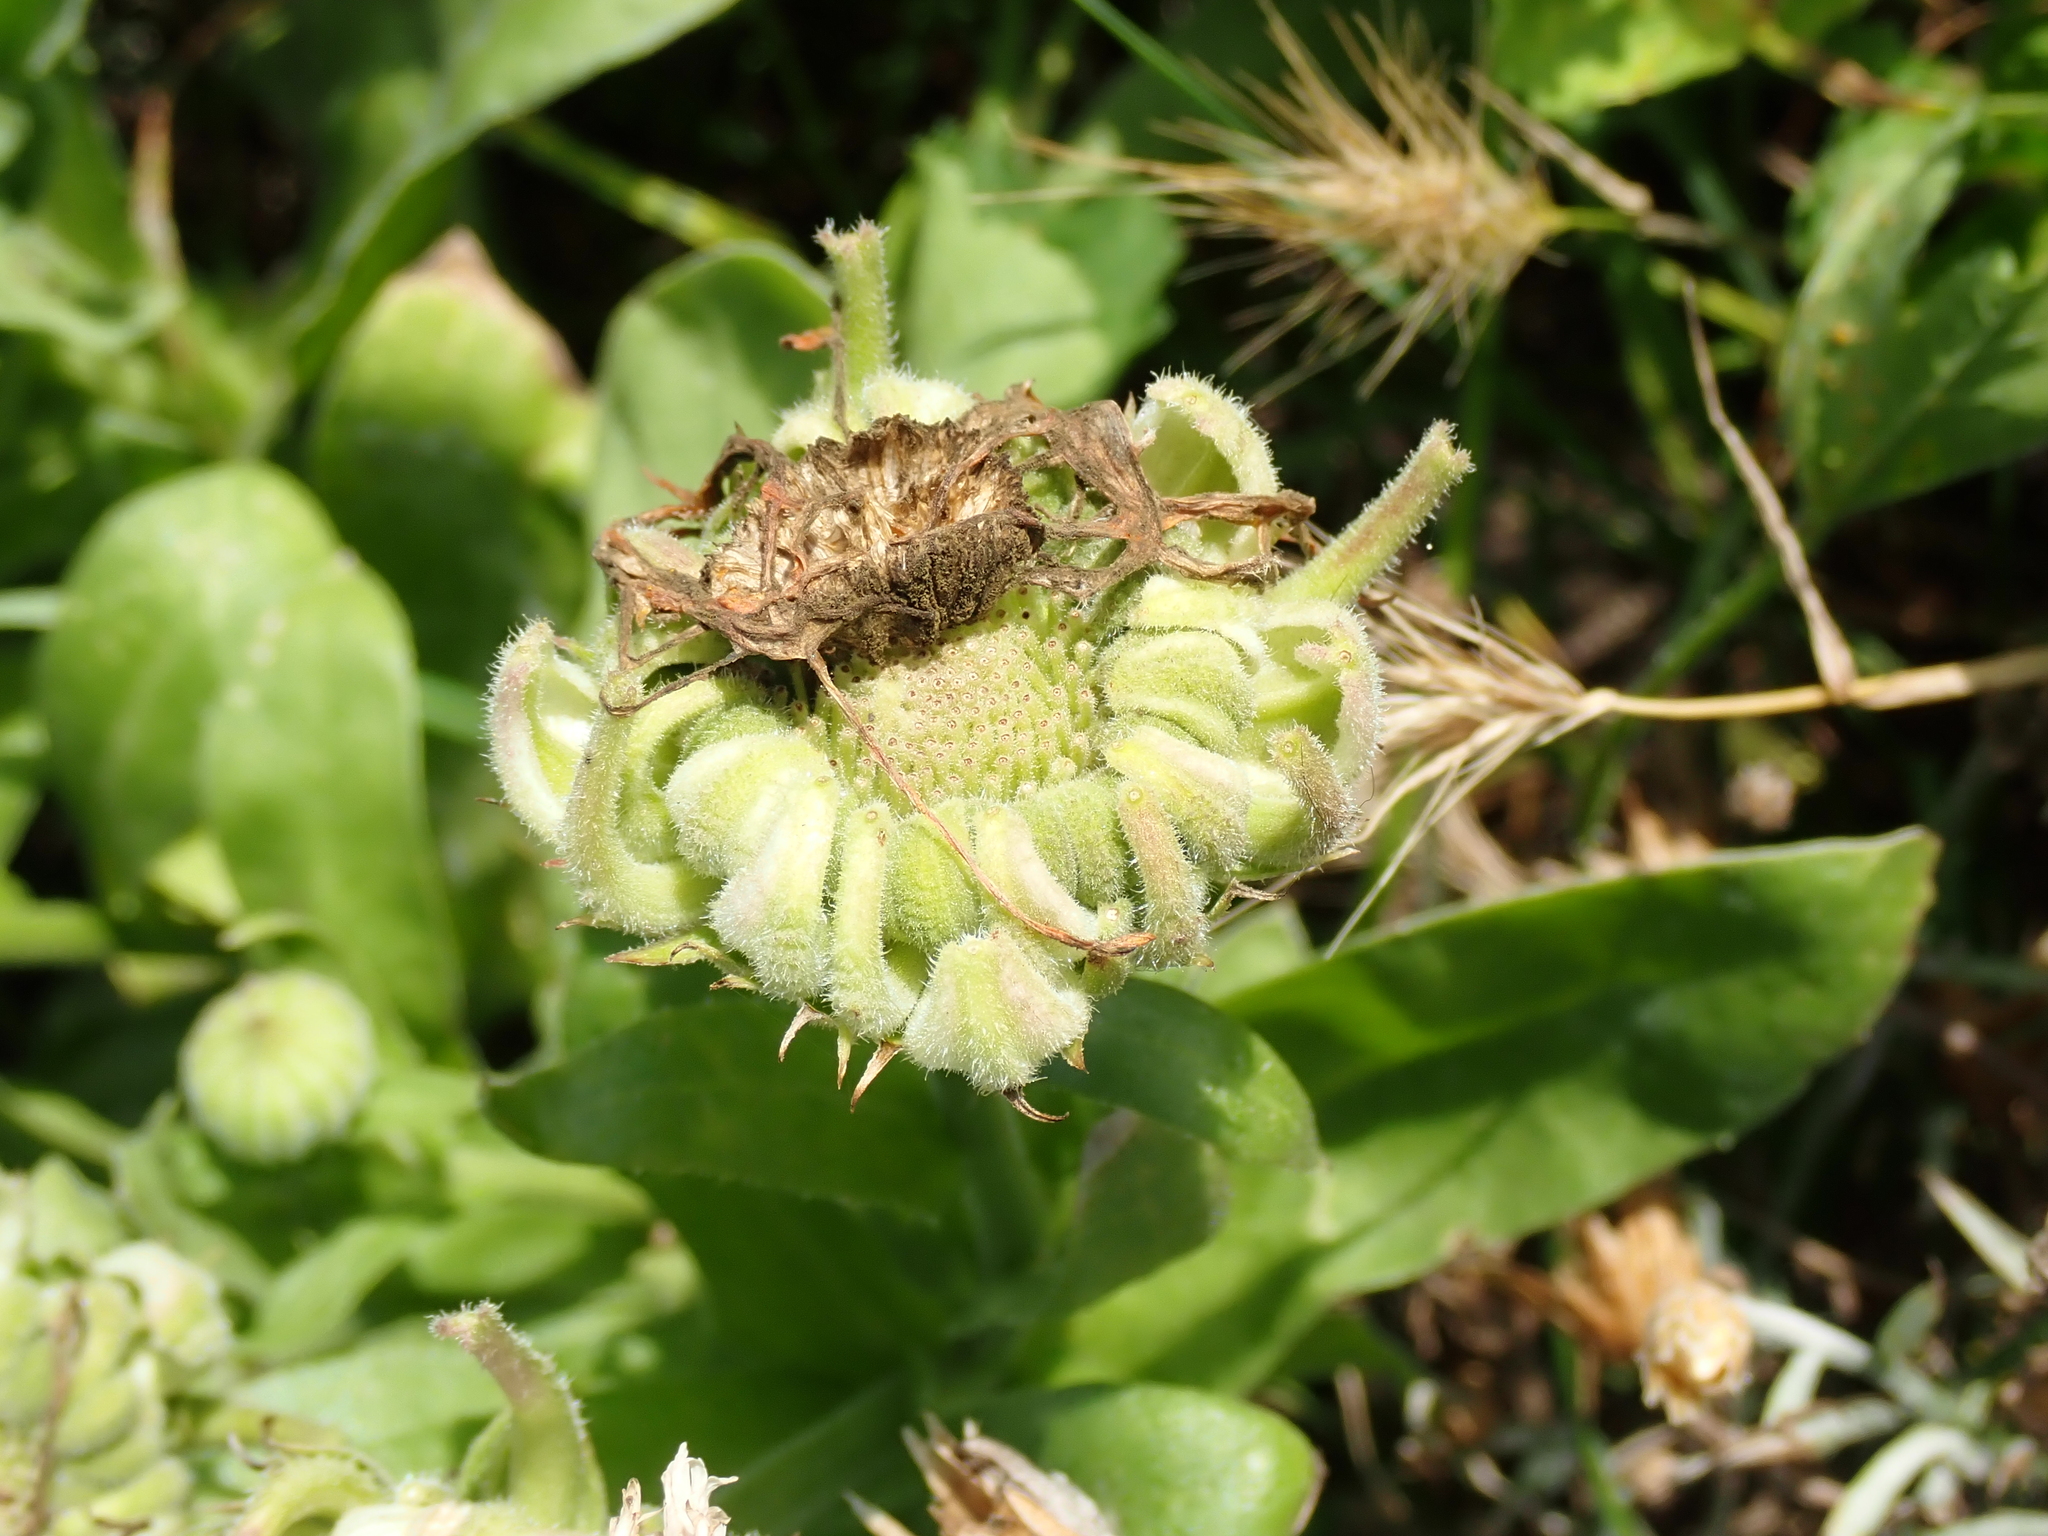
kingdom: Plantae
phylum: Tracheophyta
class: Magnoliopsida
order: Asterales
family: Asteraceae
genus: Calendula
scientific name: Calendula officinalis
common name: Pot marigold
